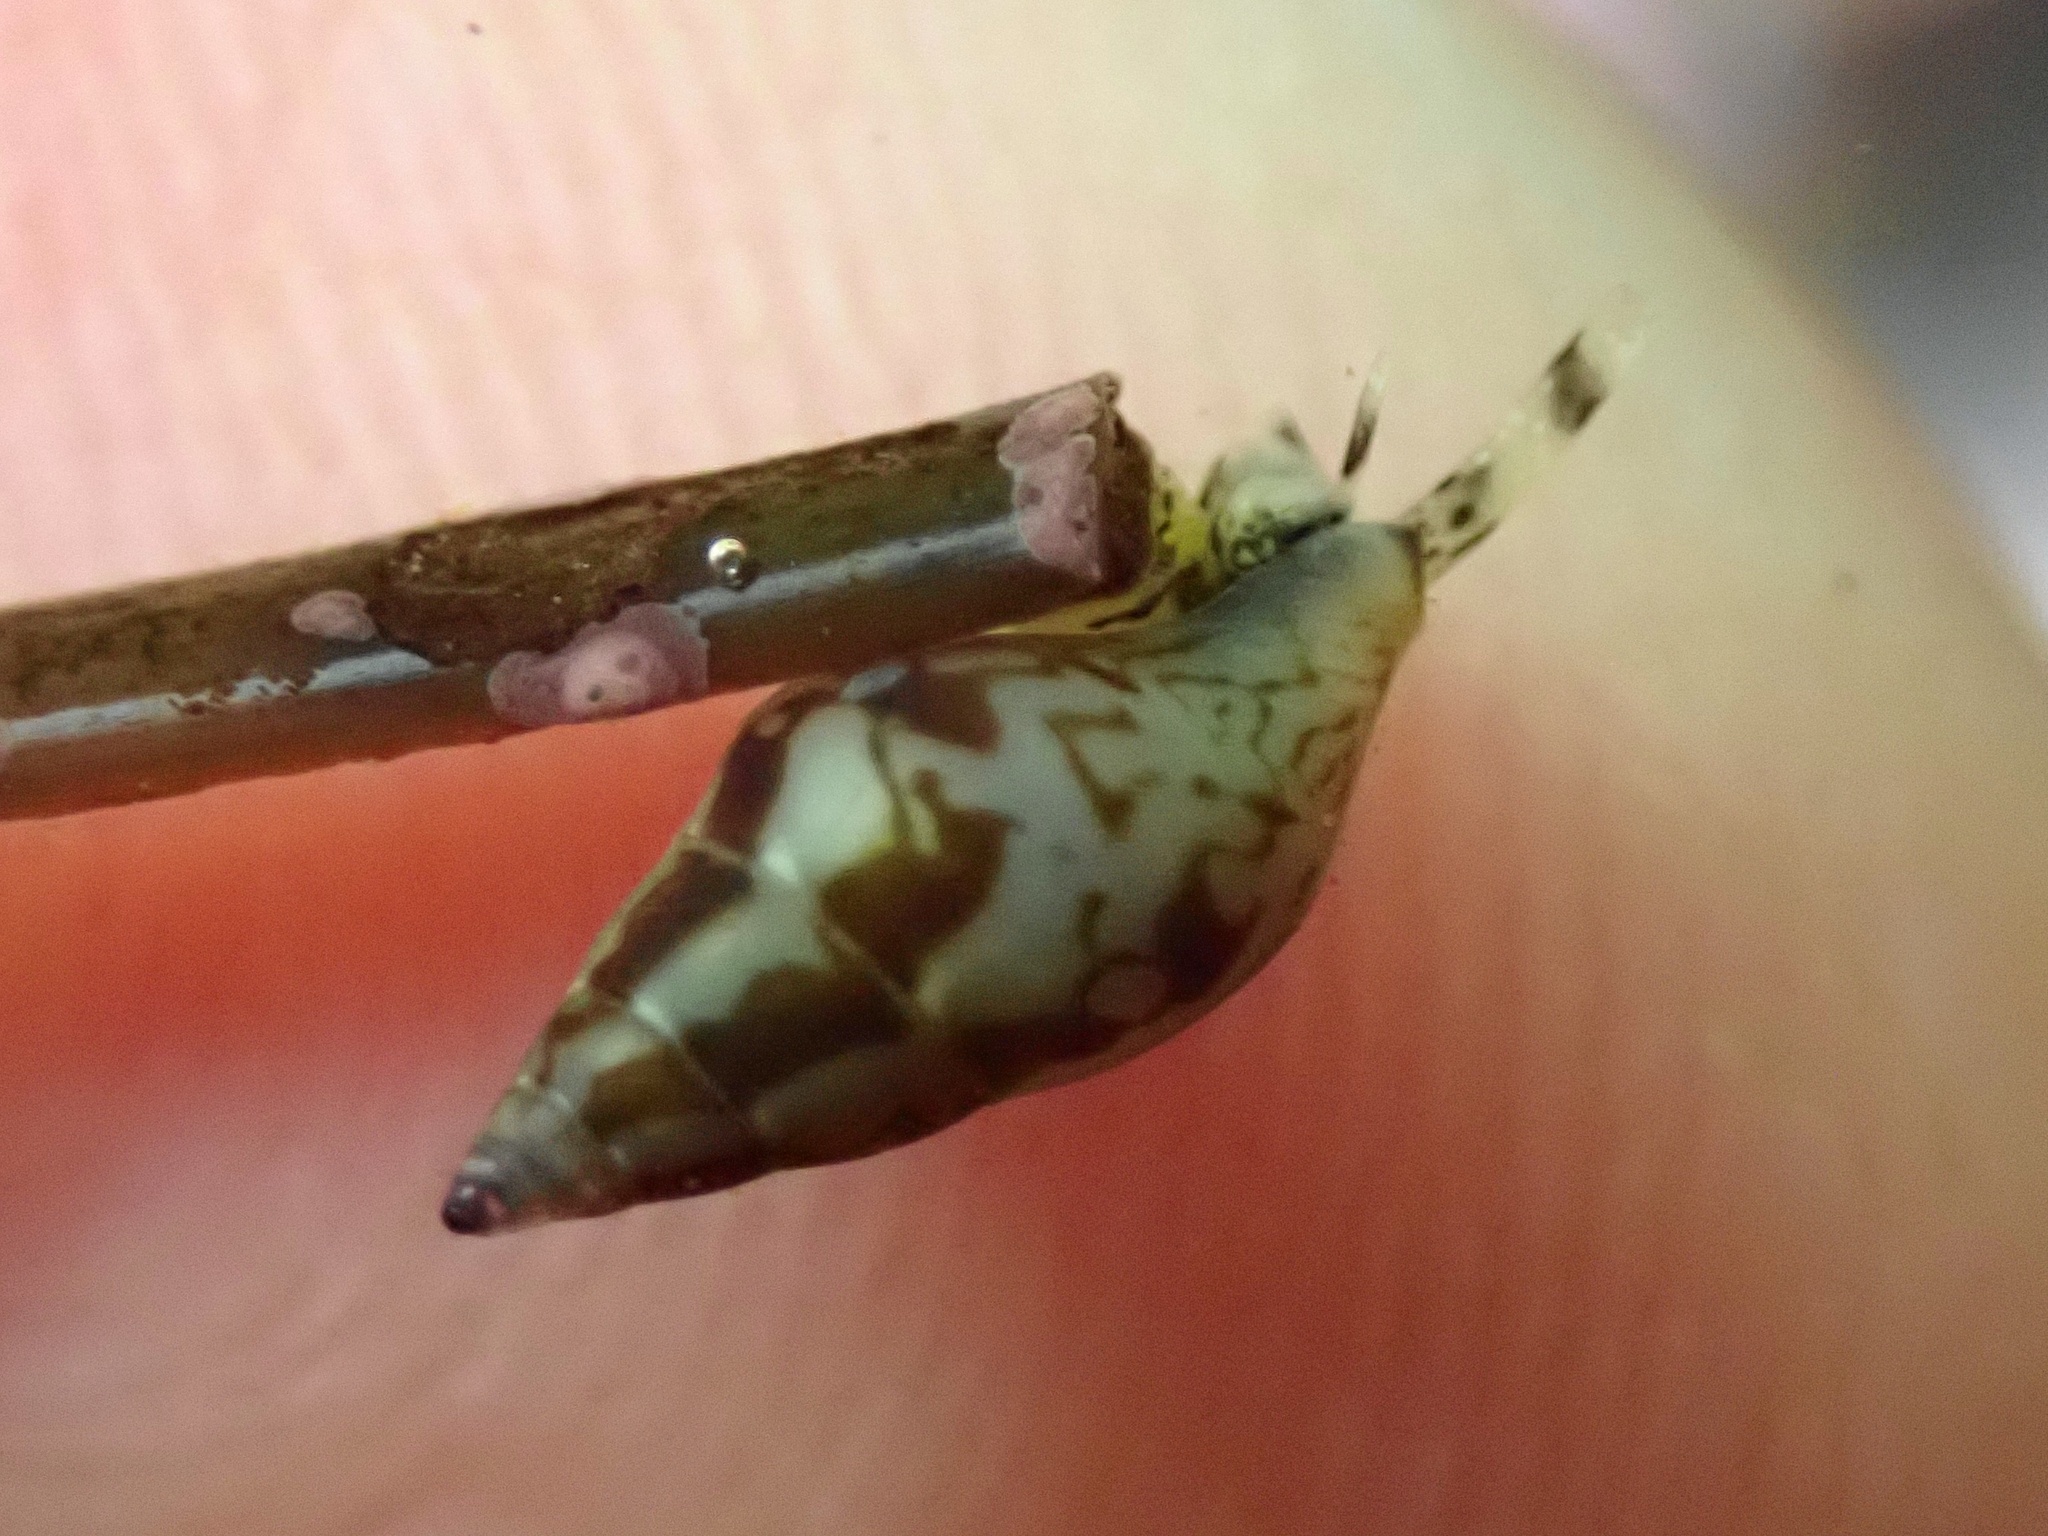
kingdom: Animalia
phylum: Mollusca
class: Gastropoda
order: Neogastropoda
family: Columbellidae
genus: Alia
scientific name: Alia carinata
